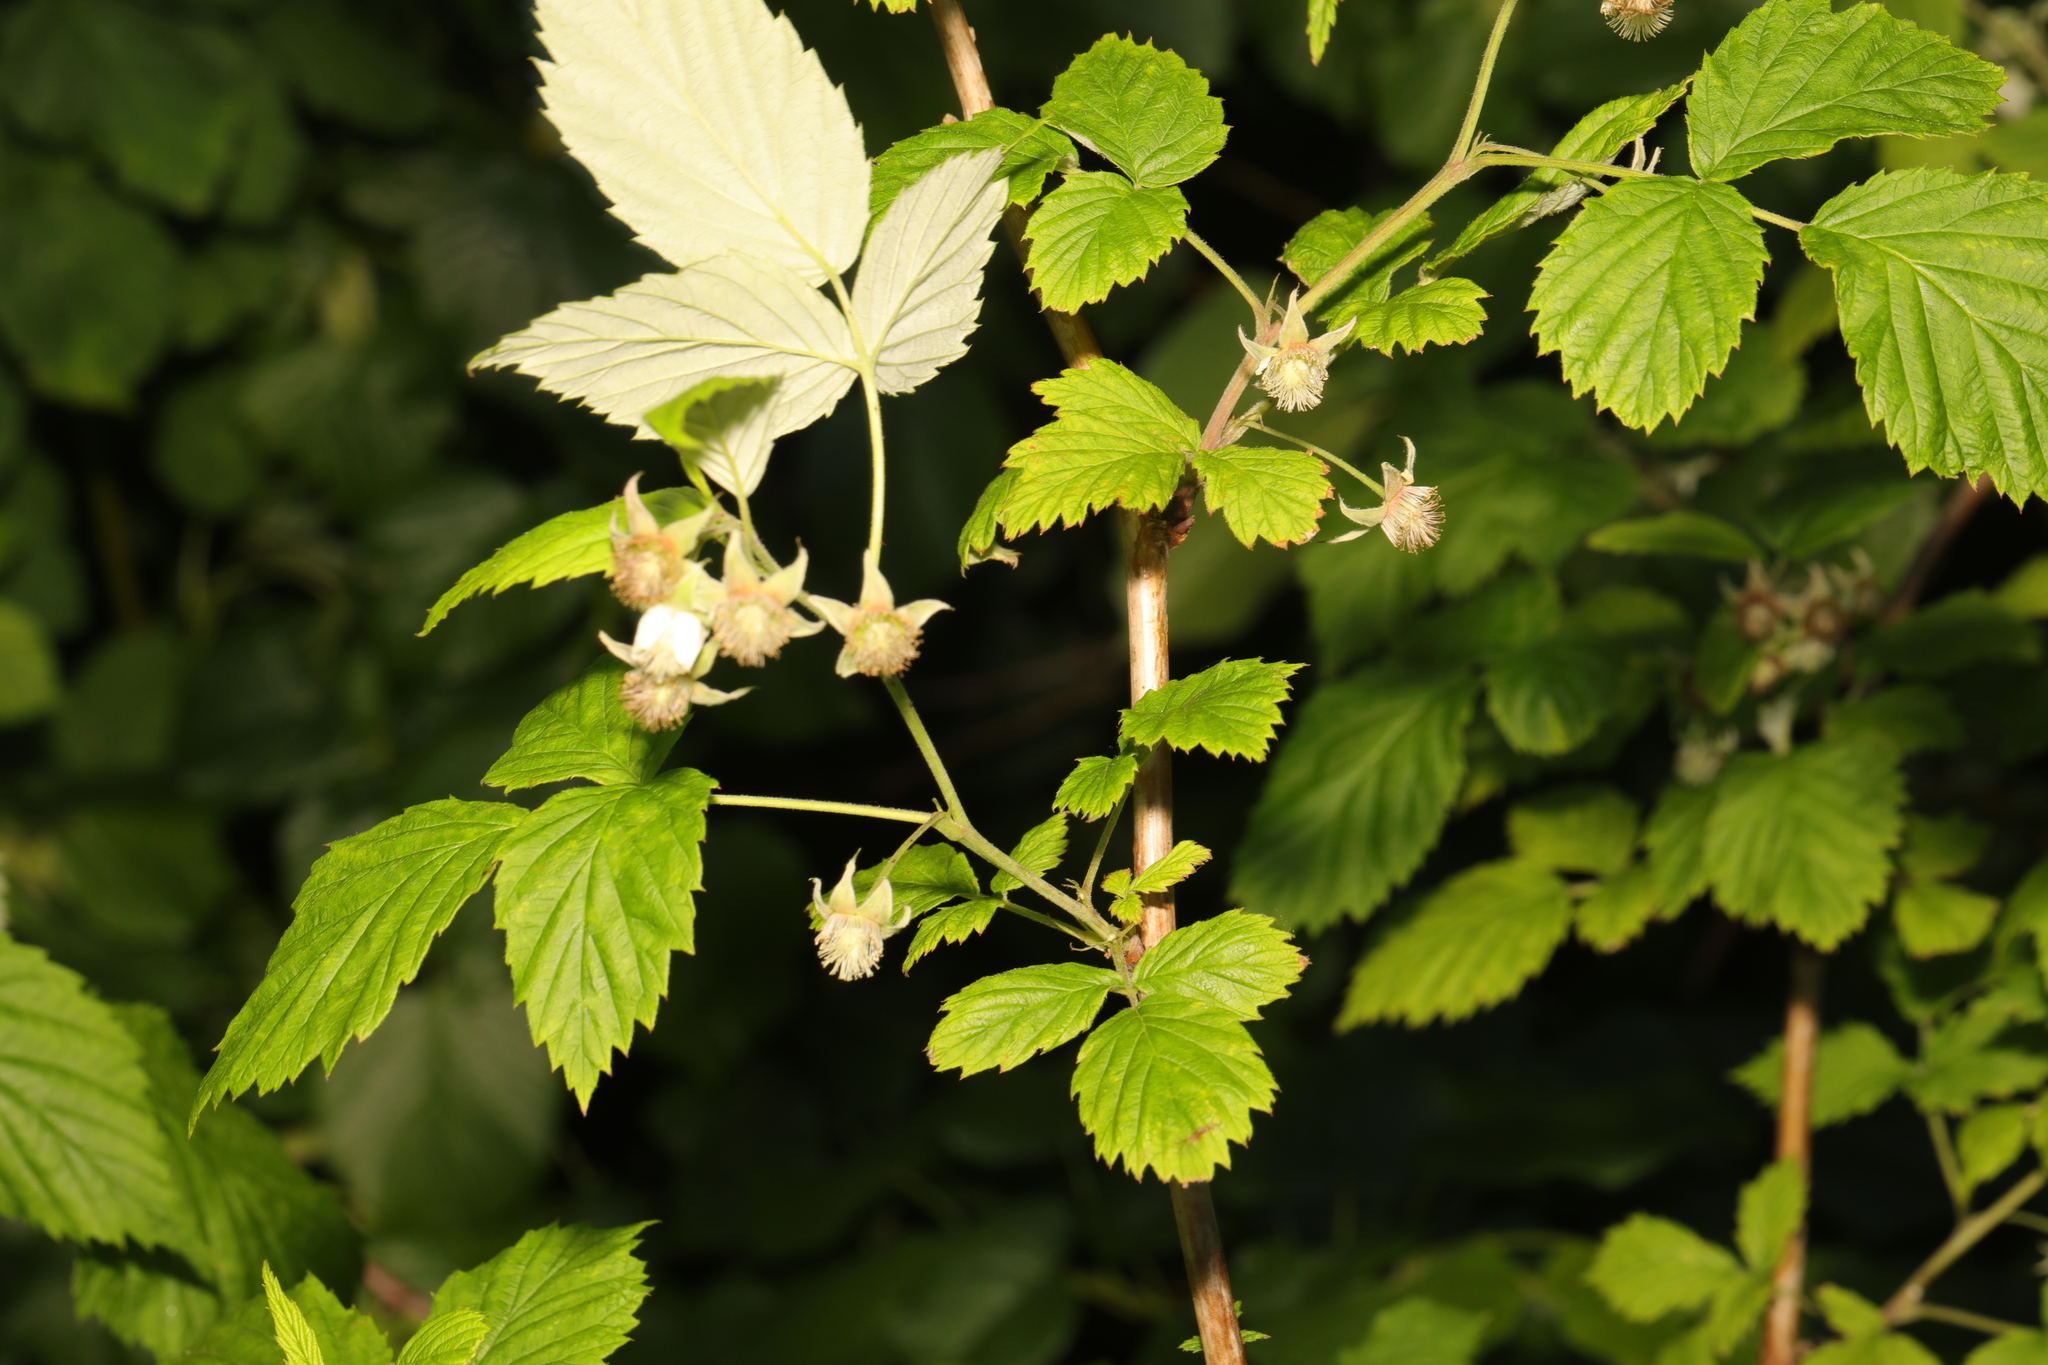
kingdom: Plantae
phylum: Tracheophyta
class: Magnoliopsida
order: Rosales
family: Rosaceae
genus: Rubus
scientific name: Rubus idaeus
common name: Raspberry
